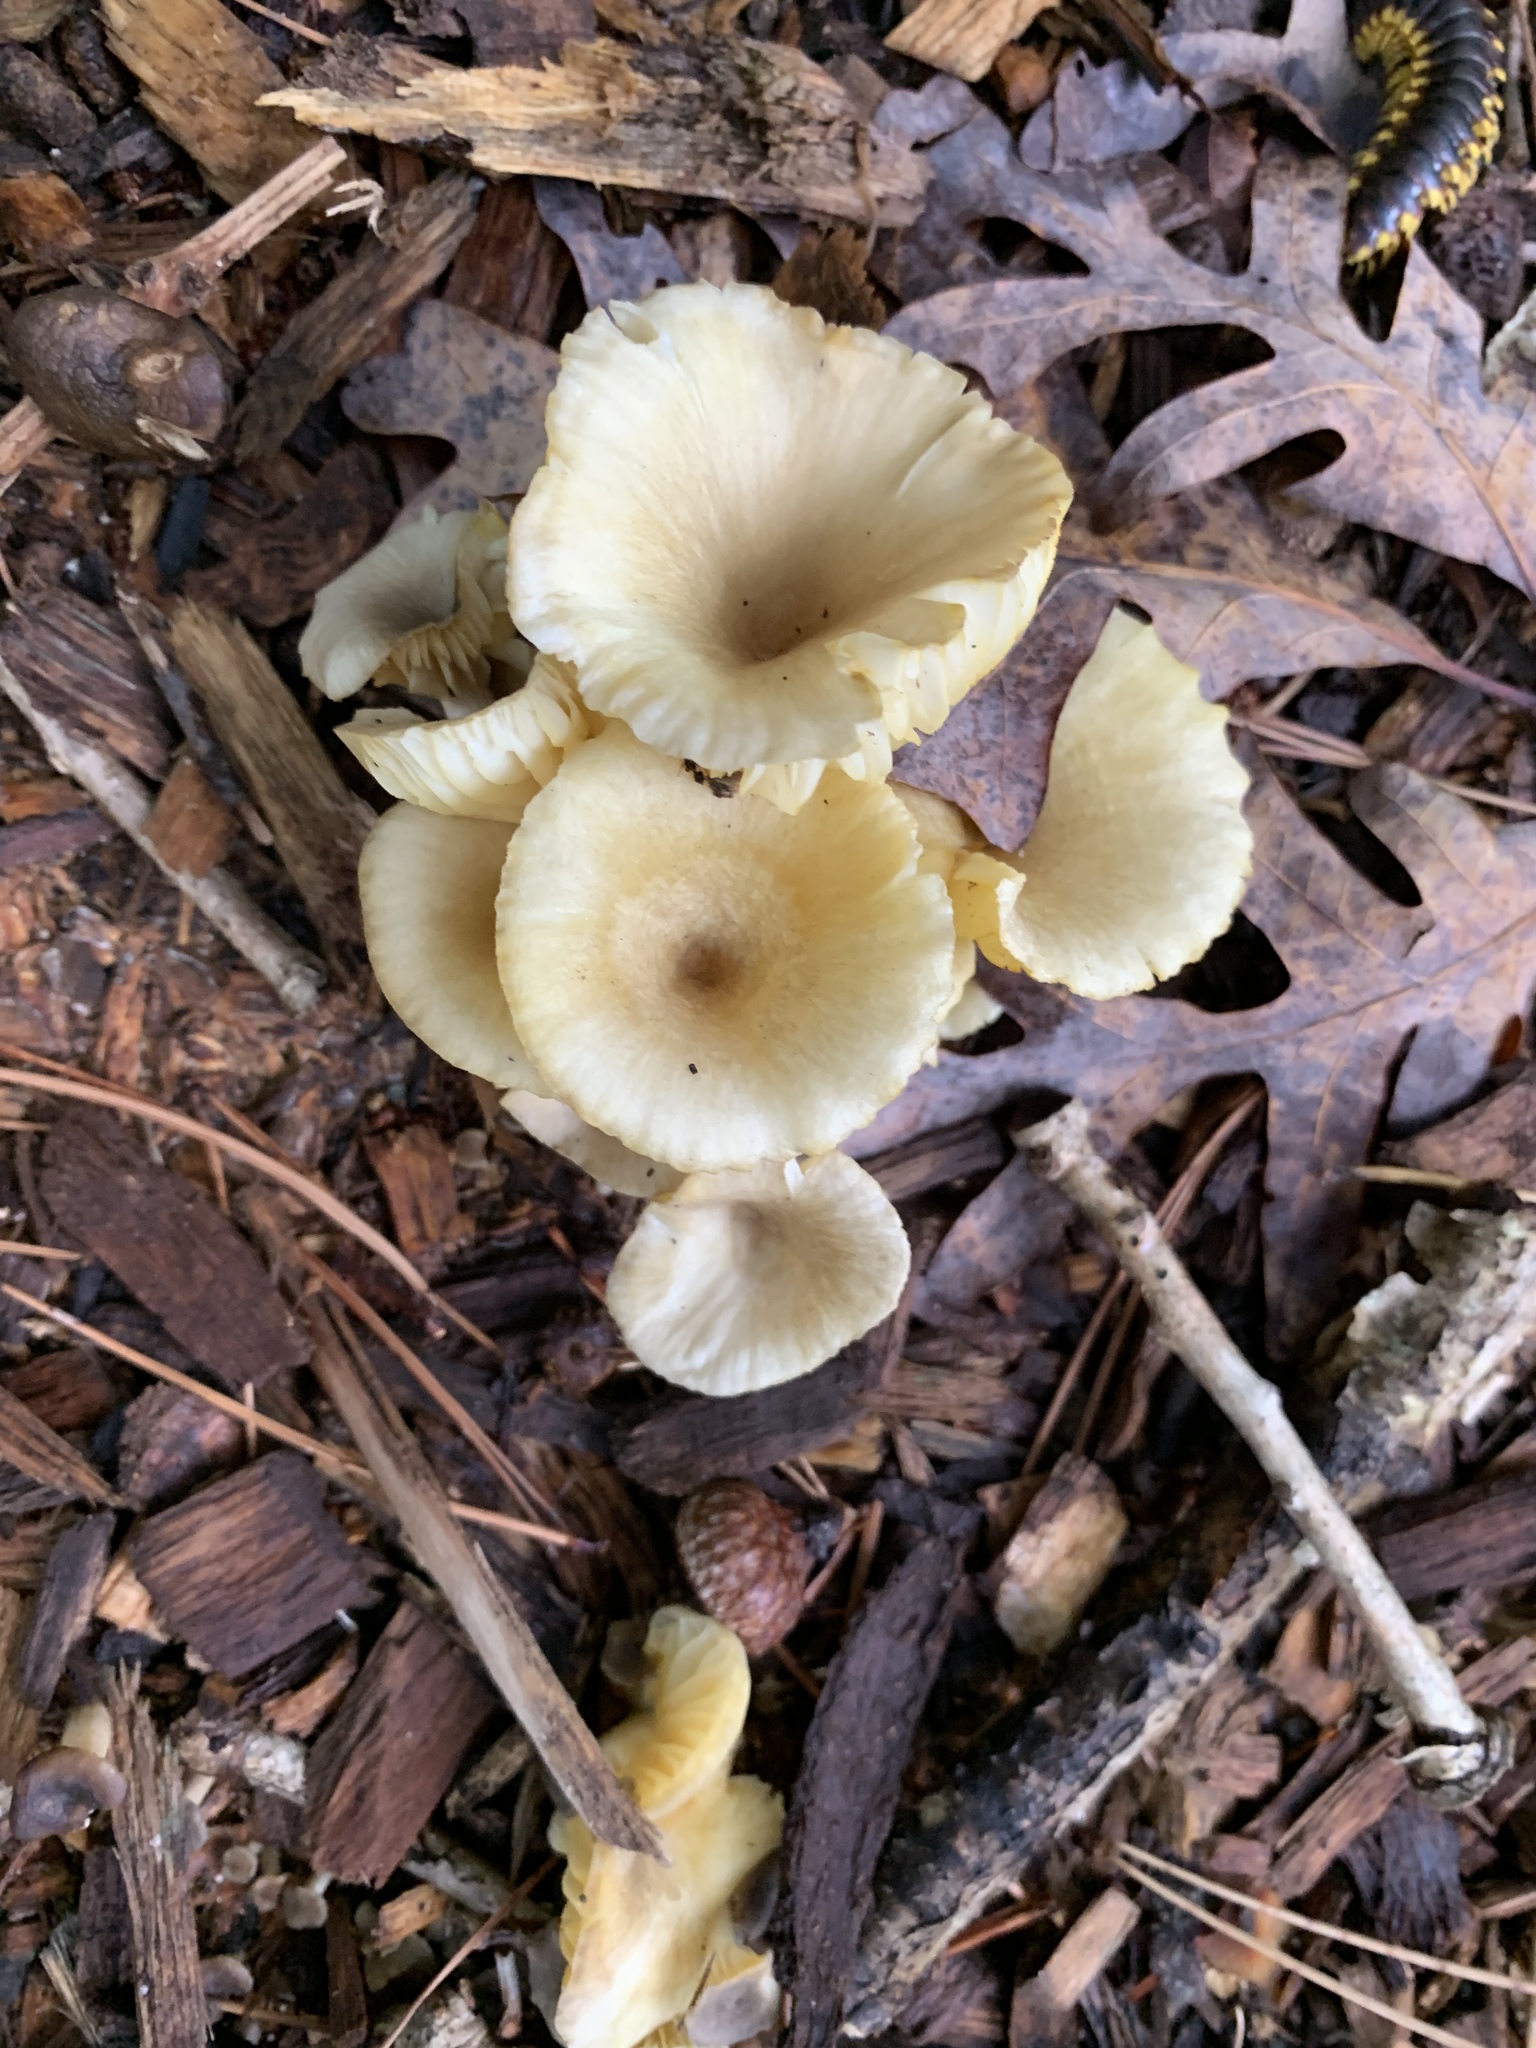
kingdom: Fungi
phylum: Basidiomycota
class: Agaricomycetes
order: Agaricales
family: Marasmiaceae
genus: Gerronema
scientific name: Gerronema strombodes
